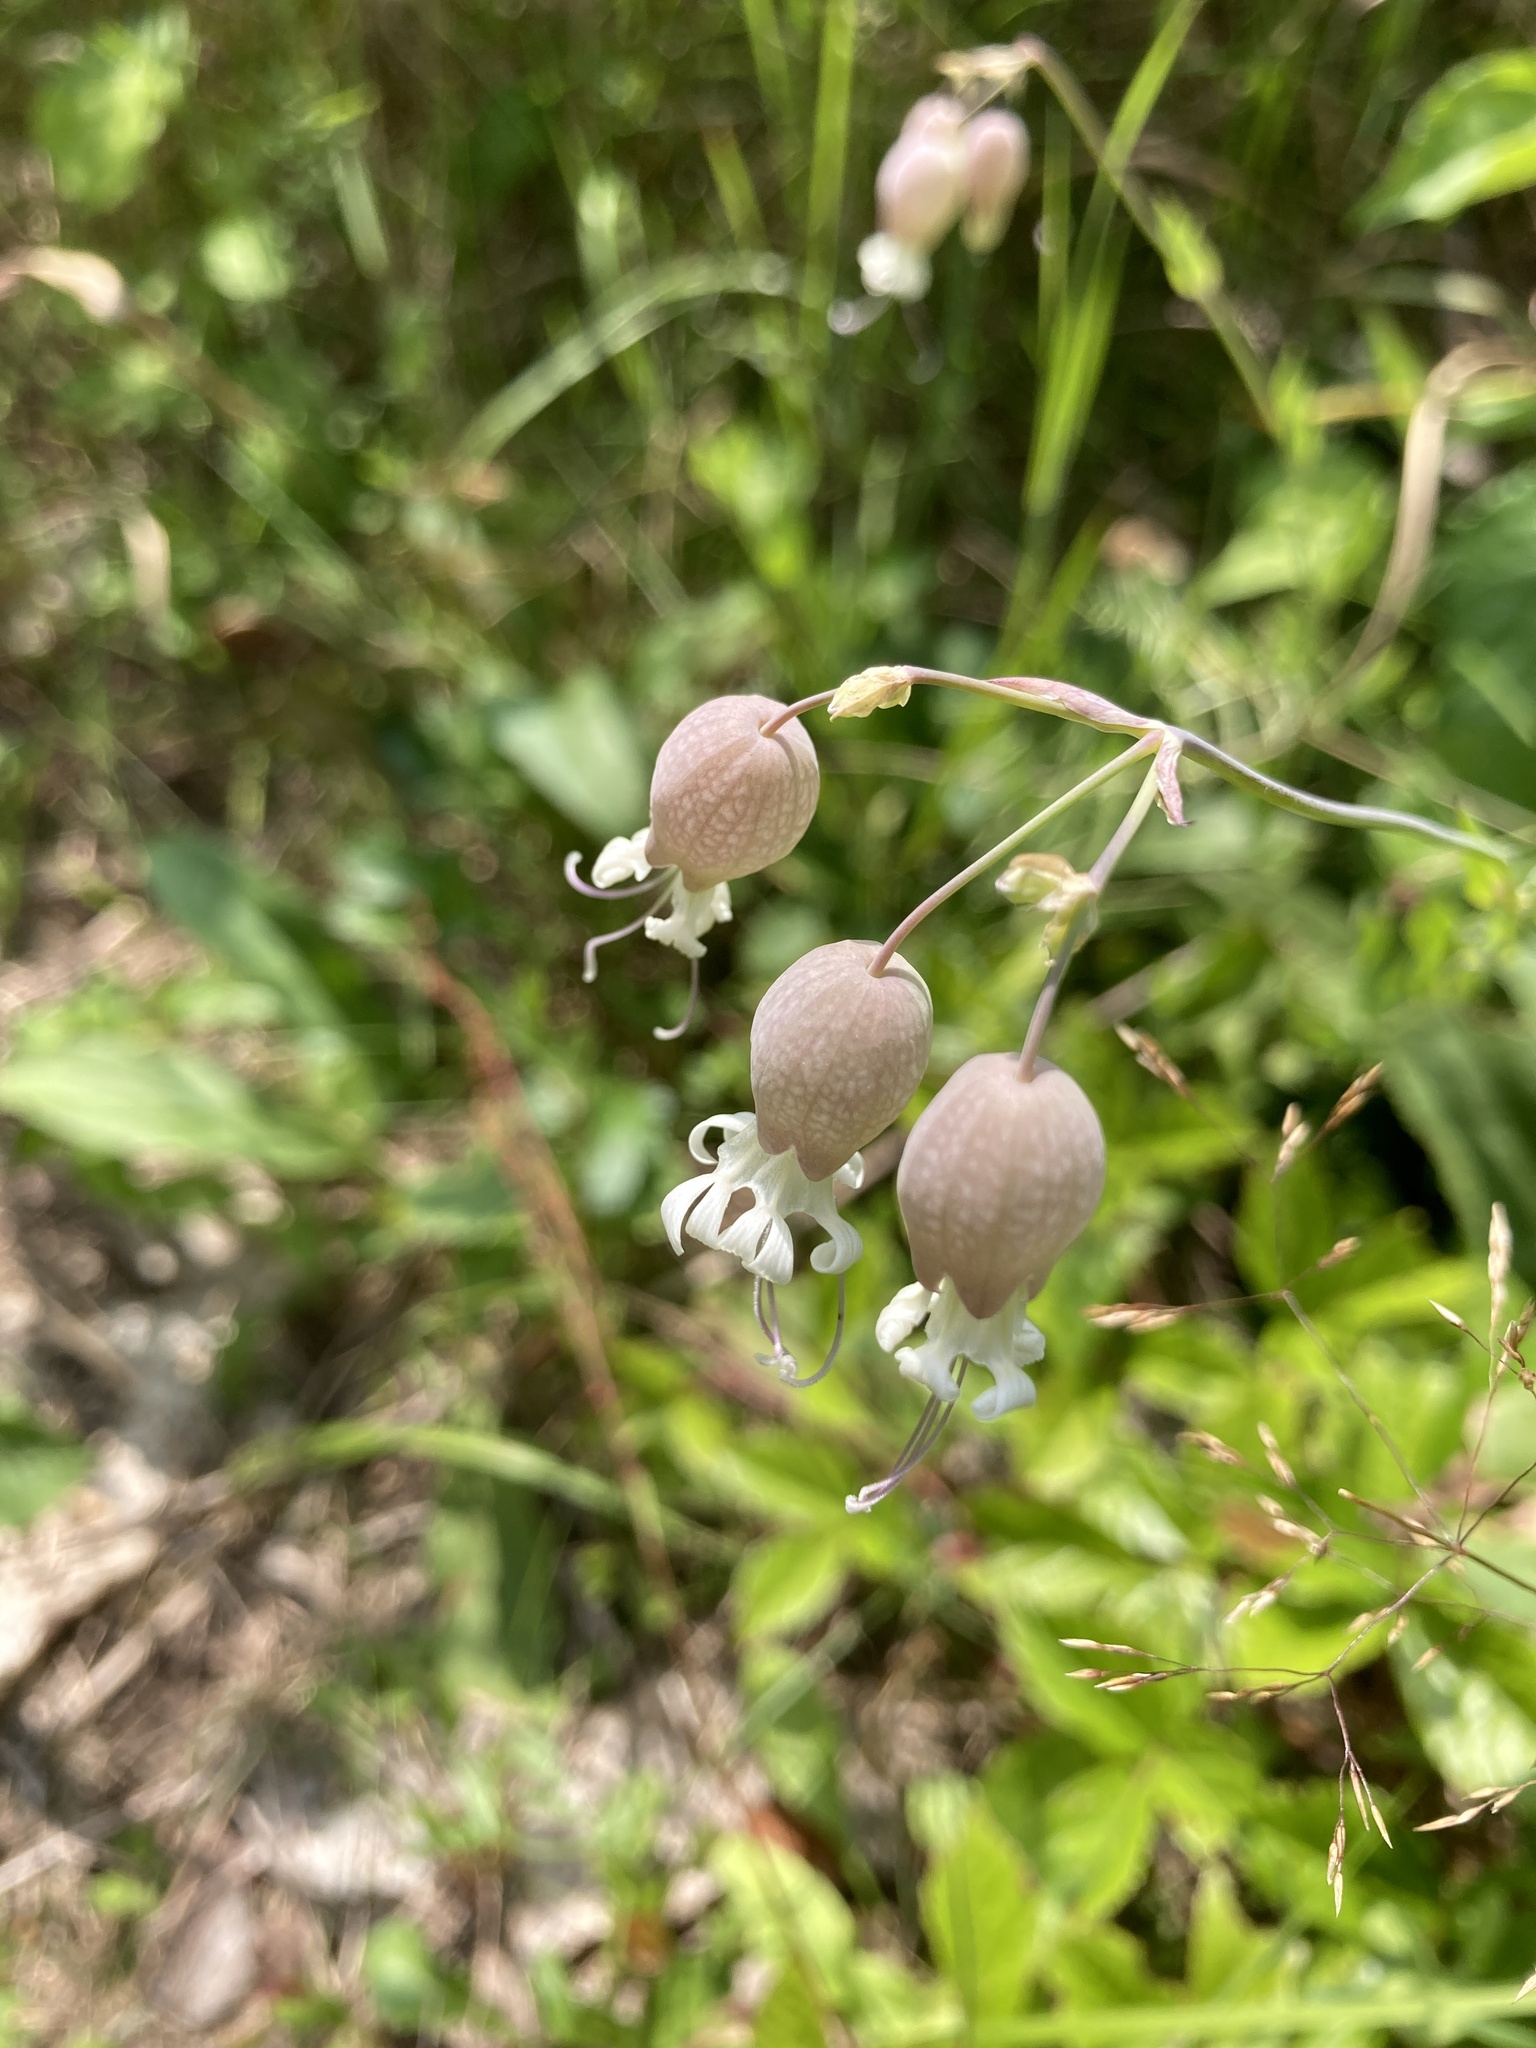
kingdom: Plantae
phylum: Tracheophyta
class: Magnoliopsida
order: Caryophyllales
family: Caryophyllaceae
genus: Silene
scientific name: Silene vulgaris
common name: Bladder campion
